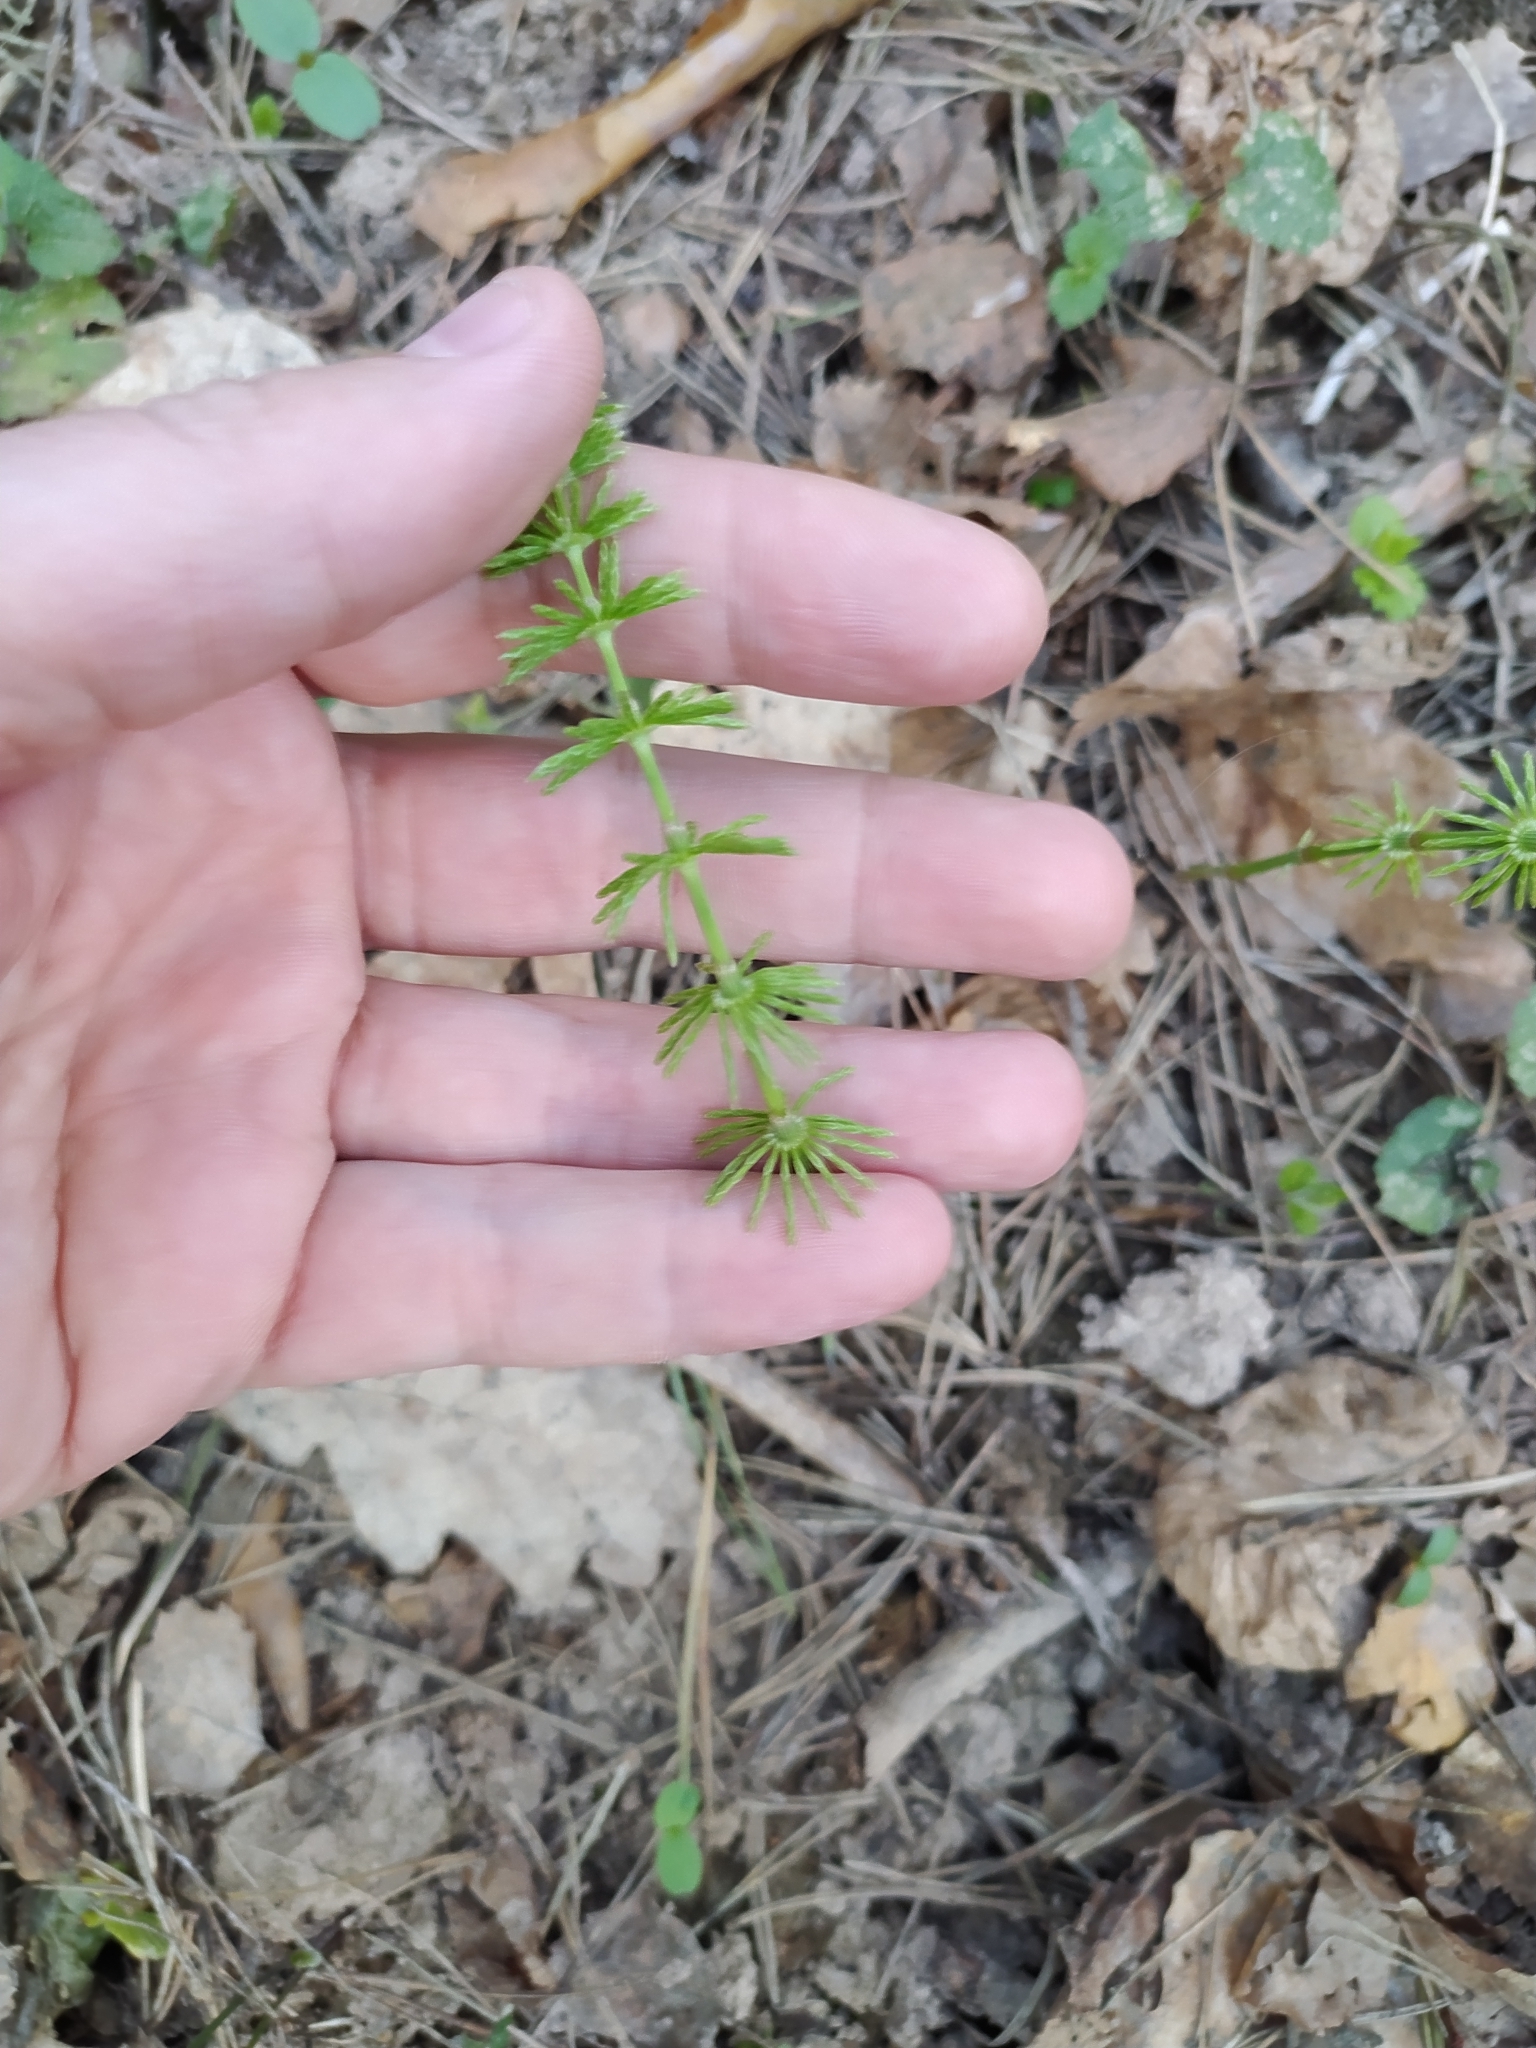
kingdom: Plantae
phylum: Tracheophyta
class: Polypodiopsida
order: Equisetales
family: Equisetaceae
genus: Equisetum
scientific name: Equisetum pratense
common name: Meadow horsetail
